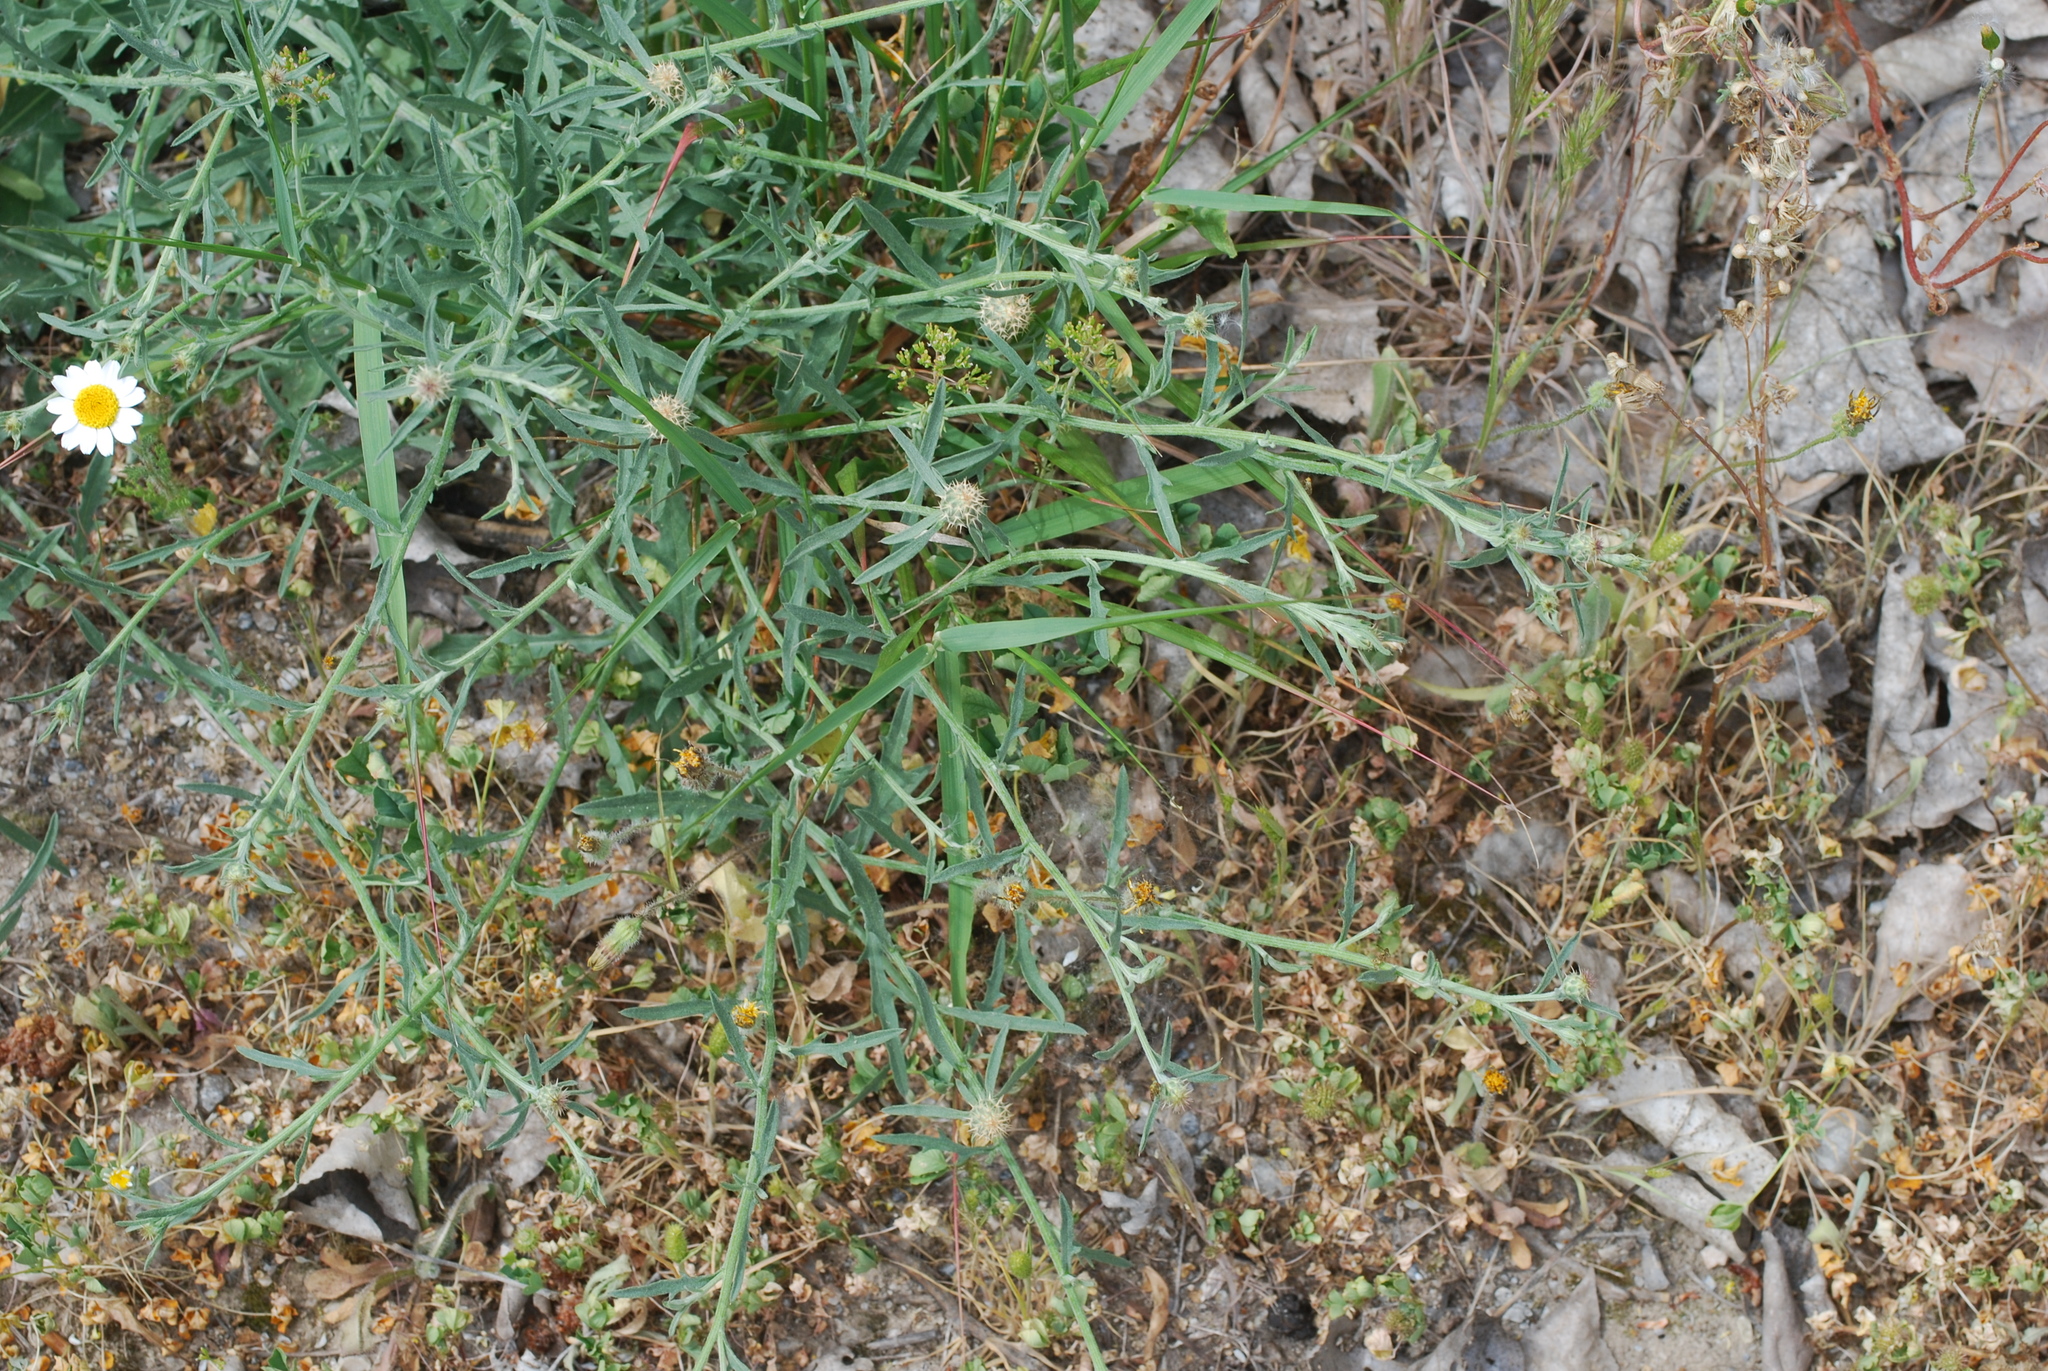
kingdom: Plantae
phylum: Tracheophyta
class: Magnoliopsida
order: Asterales
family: Asteraceae
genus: Centaurea
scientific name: Centaurea aspera
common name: Rough star-thistle
